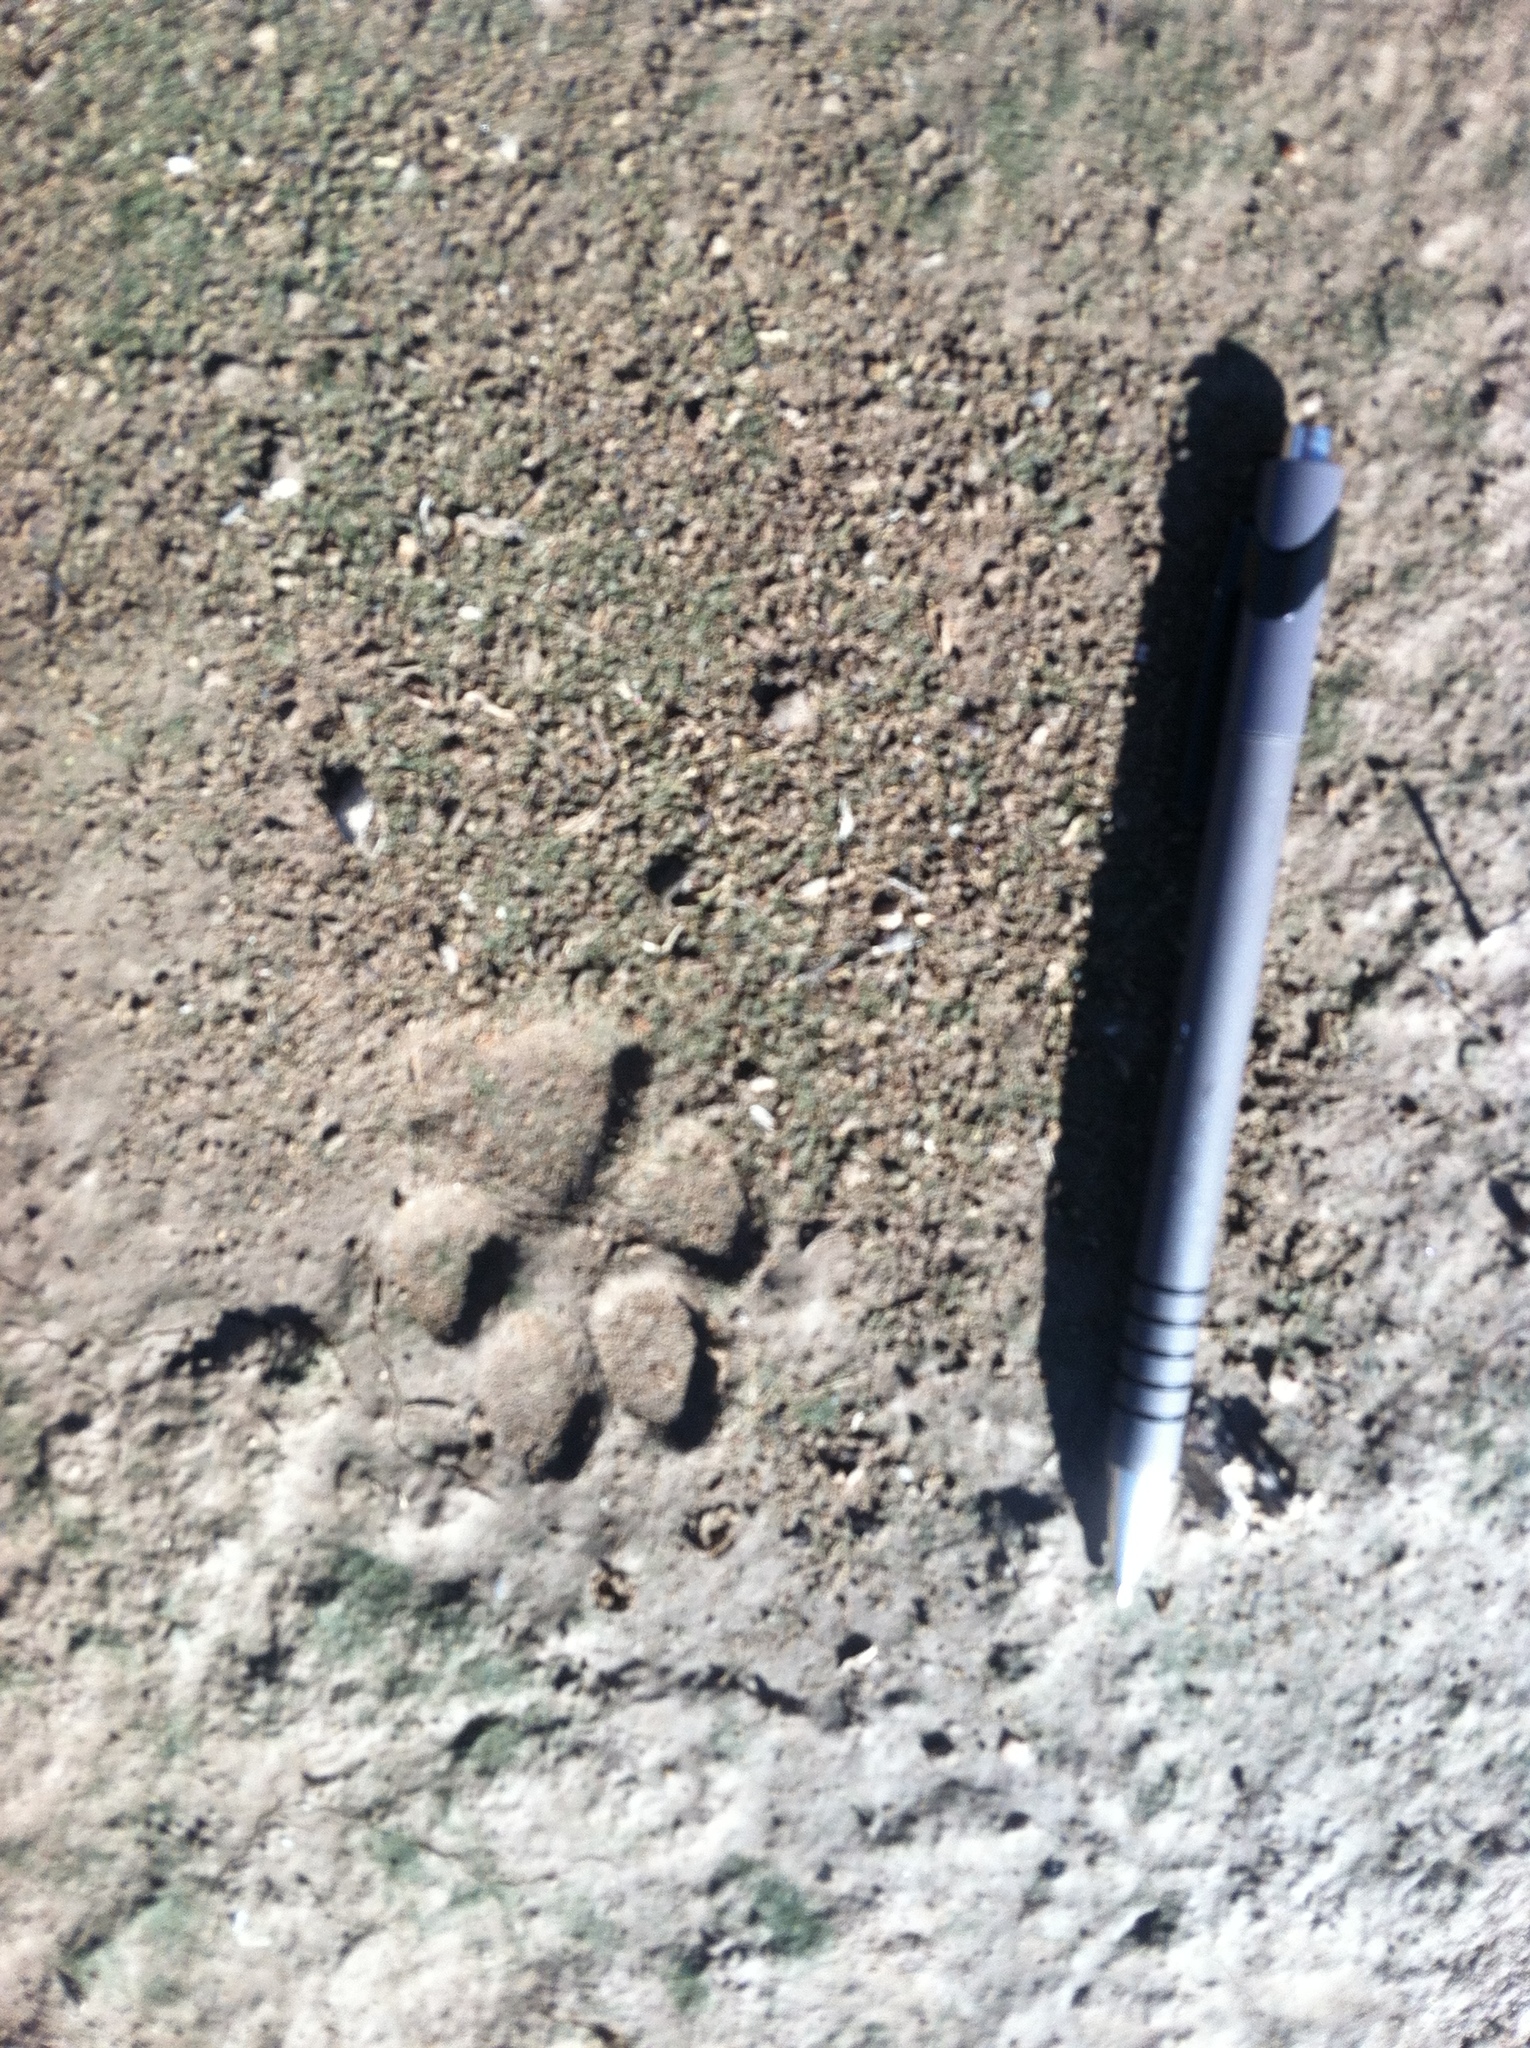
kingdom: Animalia
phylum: Chordata
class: Mammalia
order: Carnivora
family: Canidae
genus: Canis
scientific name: Canis latrans
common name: Coyote
